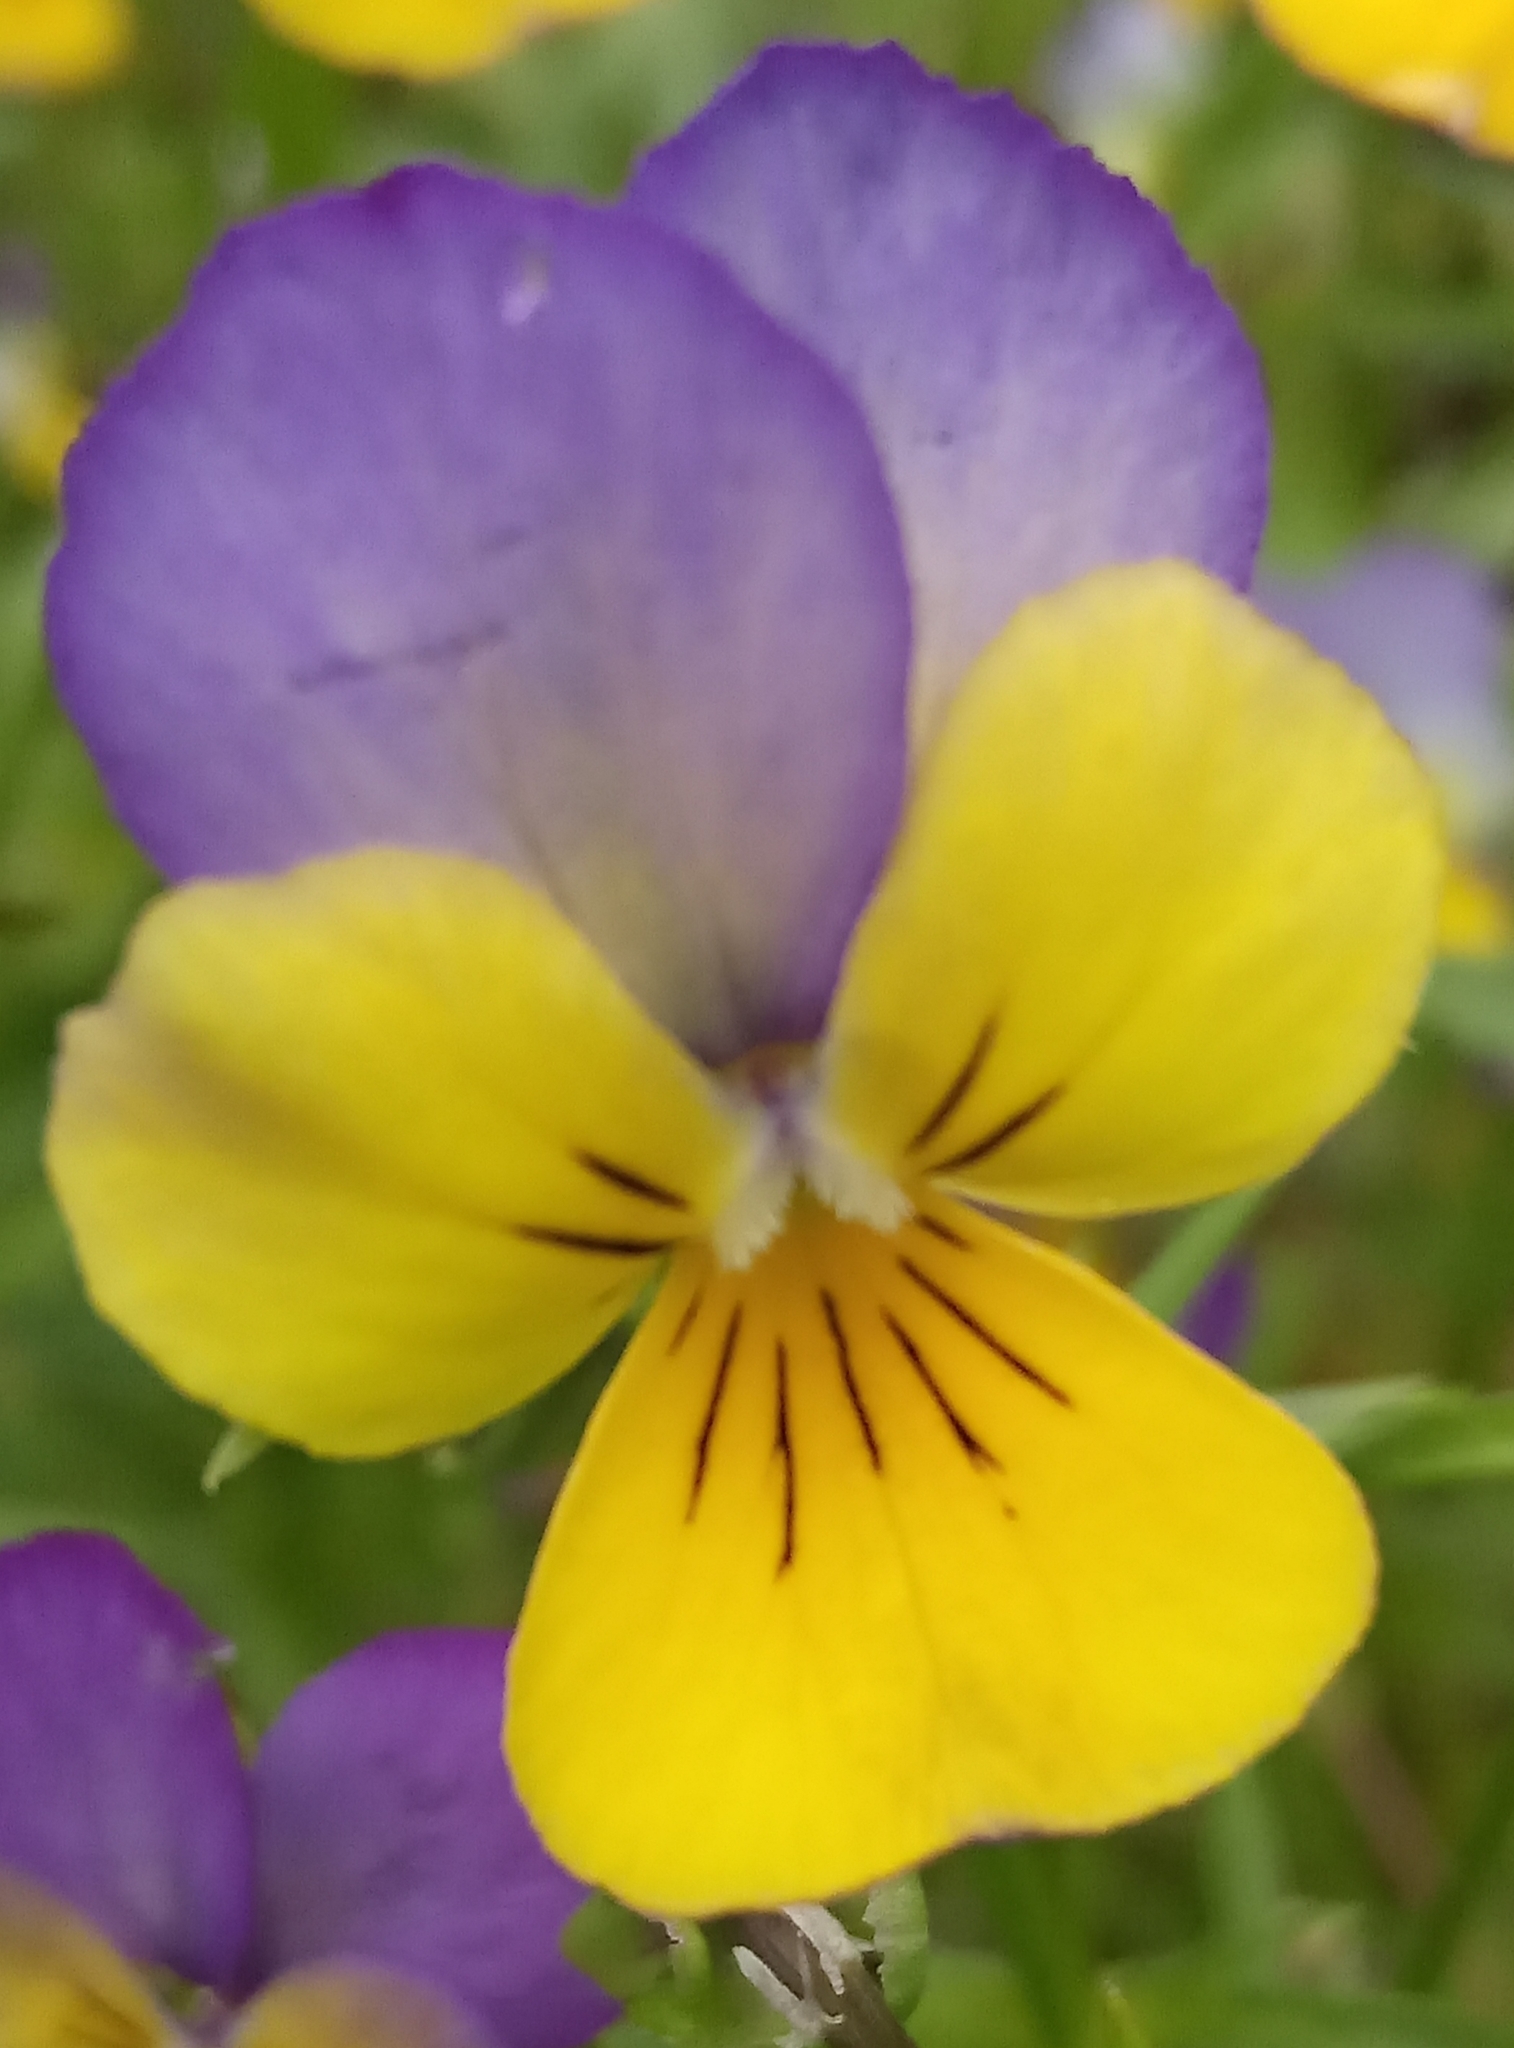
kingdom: Plantae
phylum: Tracheophyta
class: Magnoliopsida
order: Malpighiales
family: Violaceae
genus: Viola
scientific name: Viola tricolor
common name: Pansy
